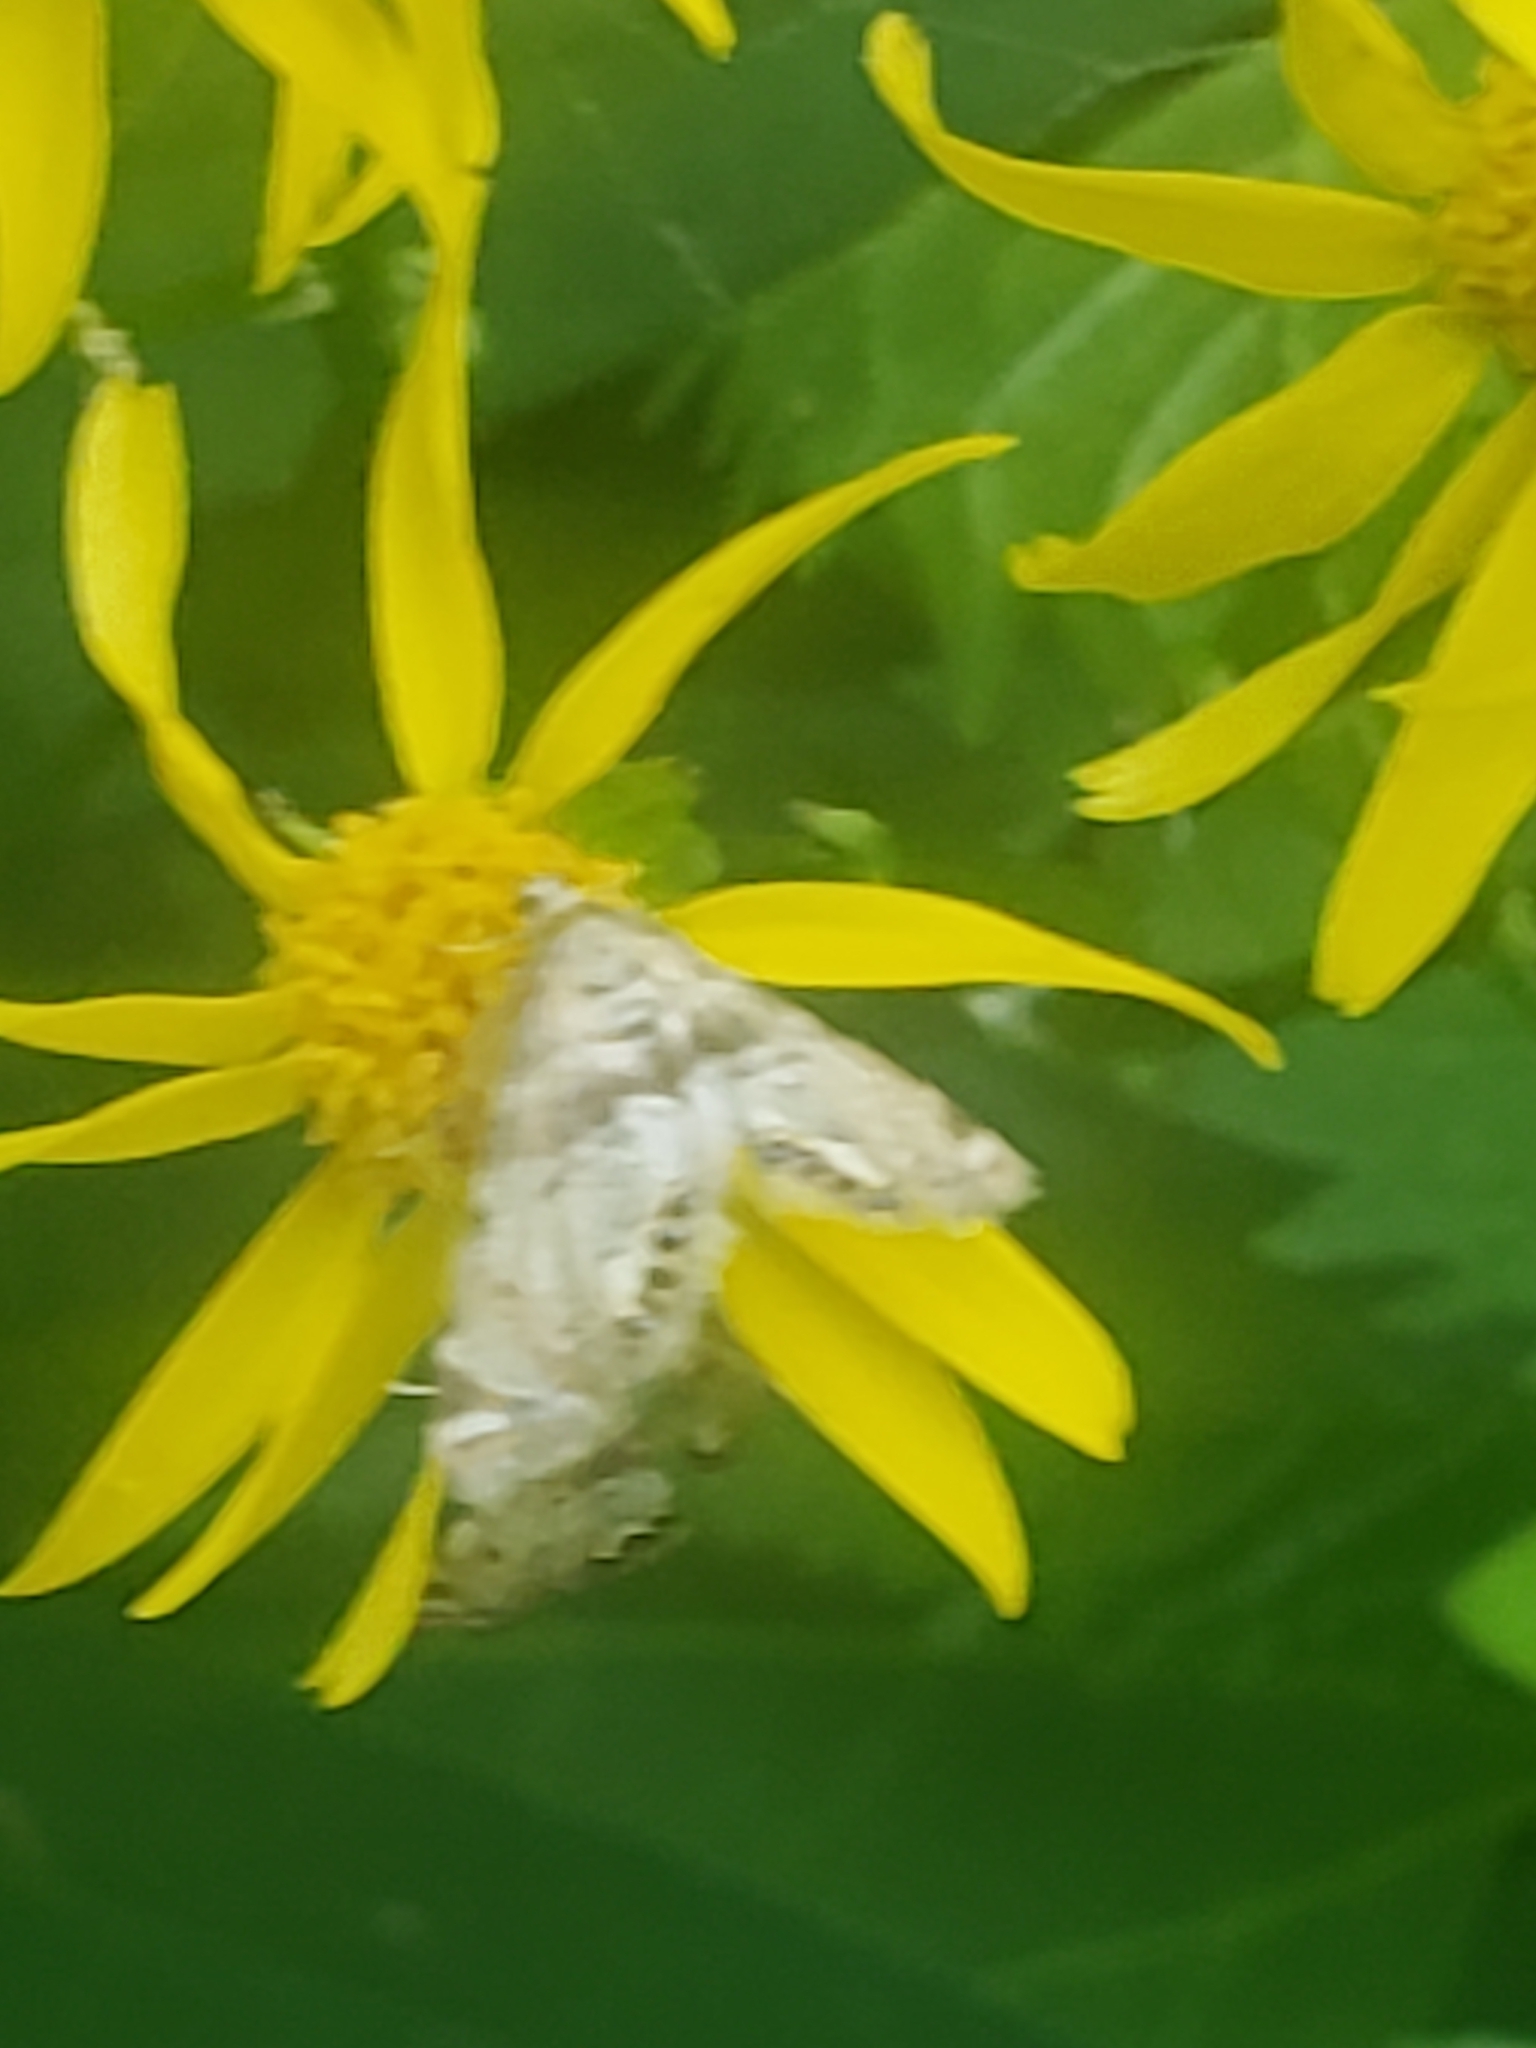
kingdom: Animalia
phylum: Arthropoda
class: Insecta
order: Lepidoptera
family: Crambidae
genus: Petrophila
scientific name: Petrophila fulicalis
